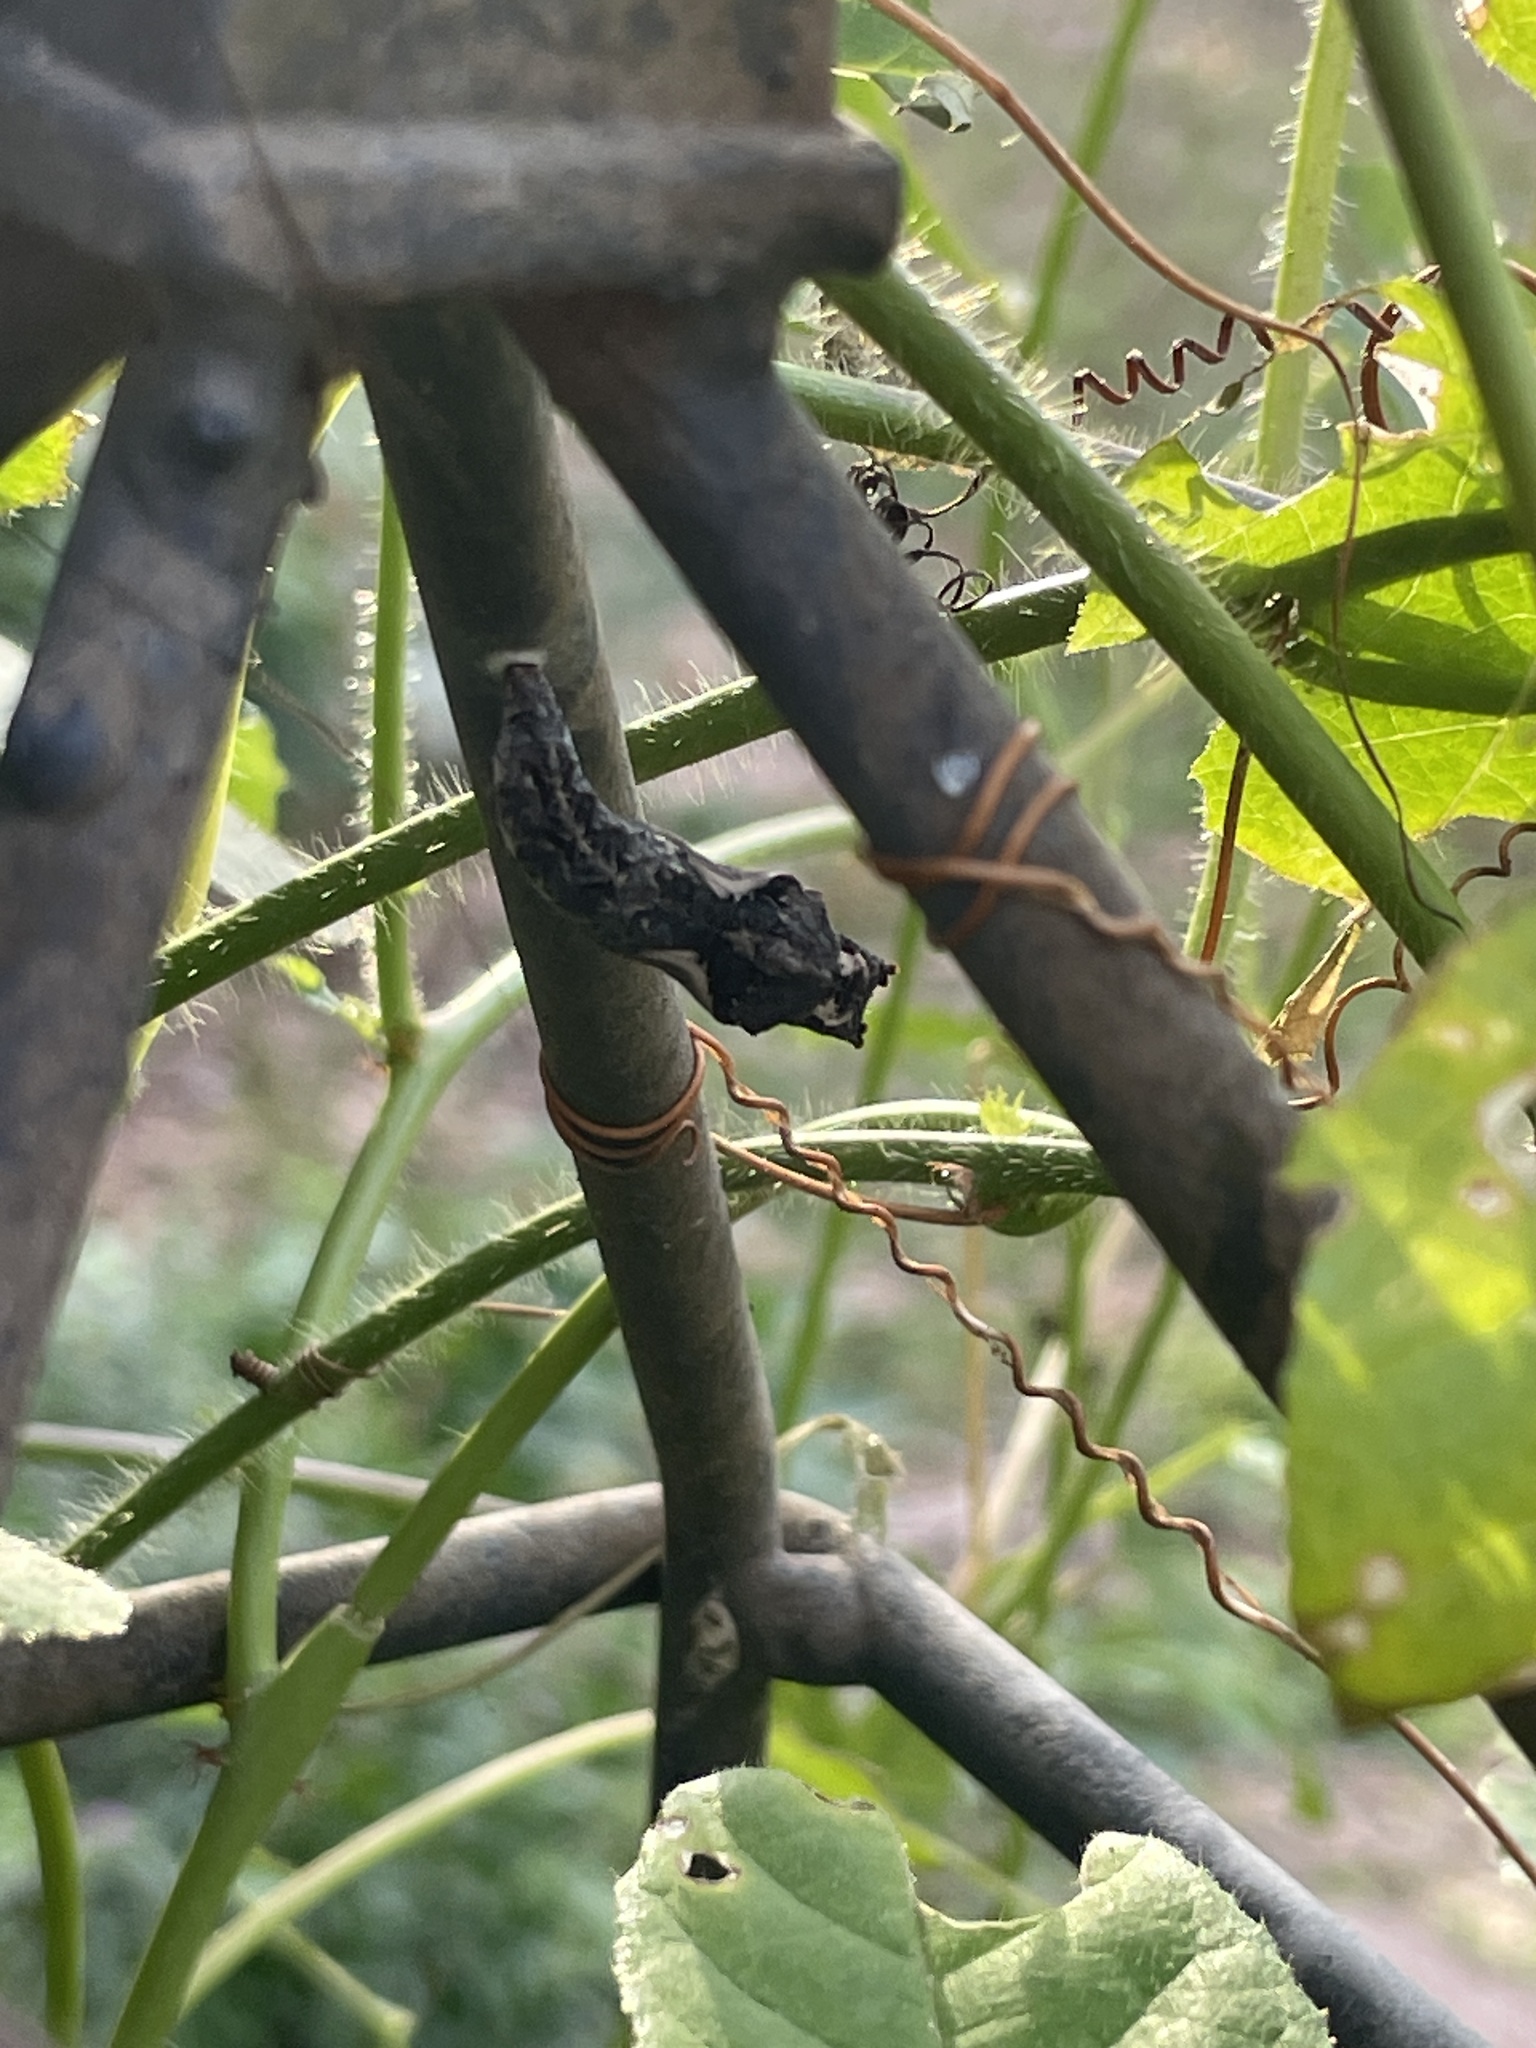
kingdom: Animalia
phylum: Arthropoda
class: Insecta
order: Lepidoptera
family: Nymphalidae
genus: Dione
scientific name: Dione vanillae
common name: Gulf fritillary
